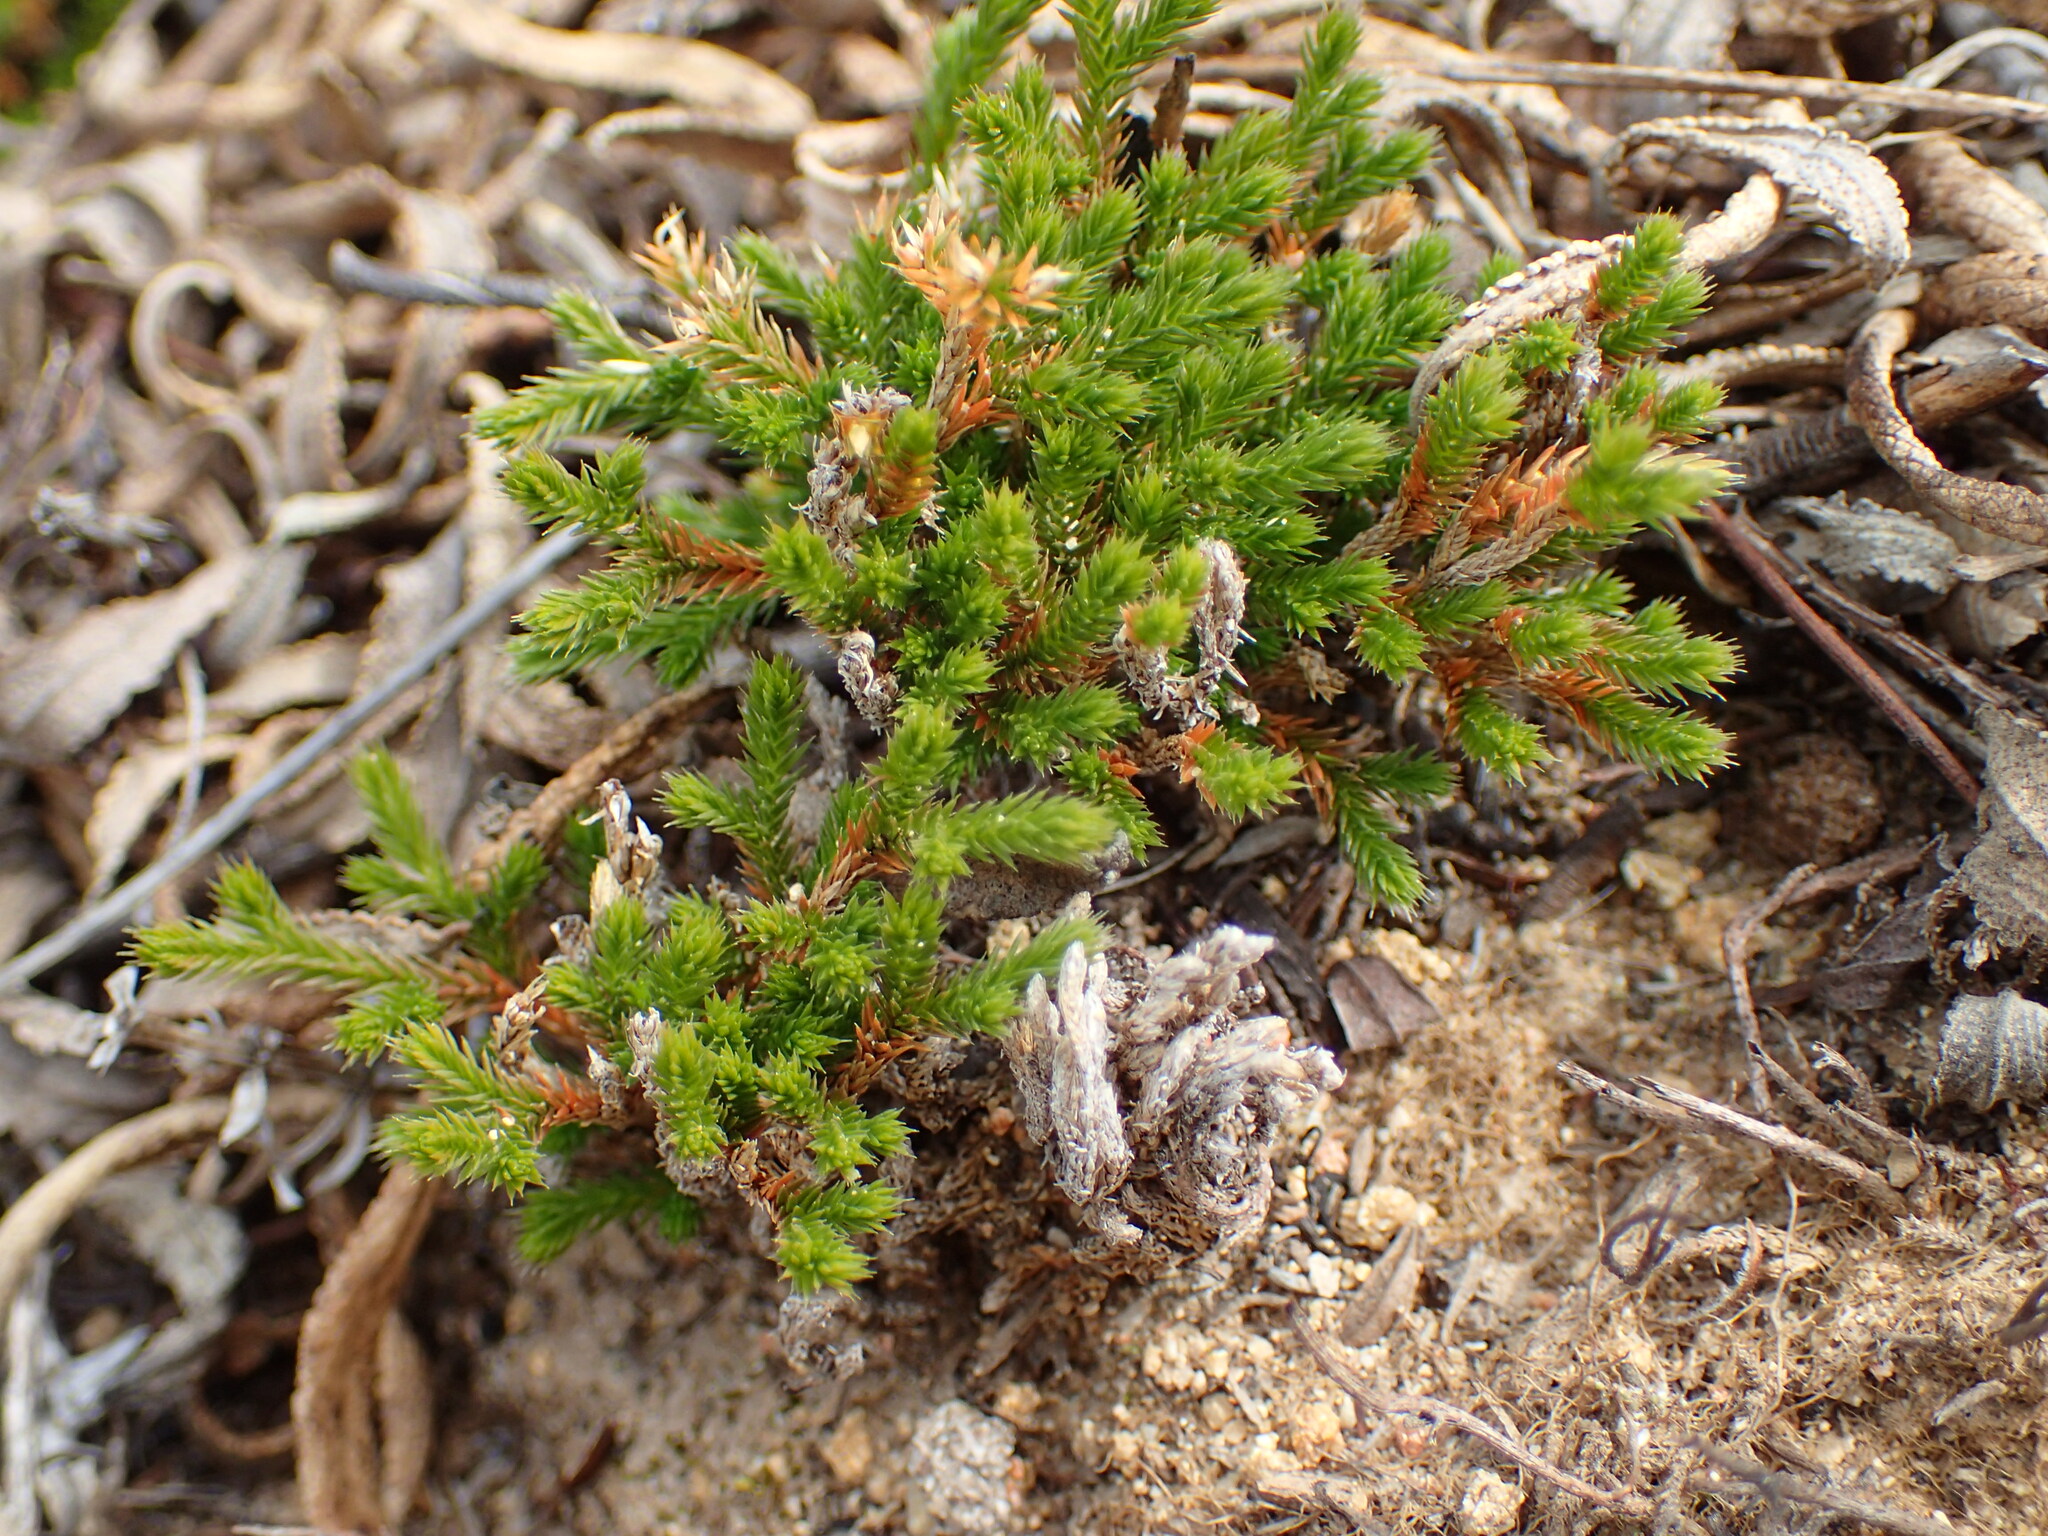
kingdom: Plantae
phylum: Tracheophyta
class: Lycopodiopsida
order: Selaginellales
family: Selaginellaceae
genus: Selaginella
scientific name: Selaginella bigelovii
